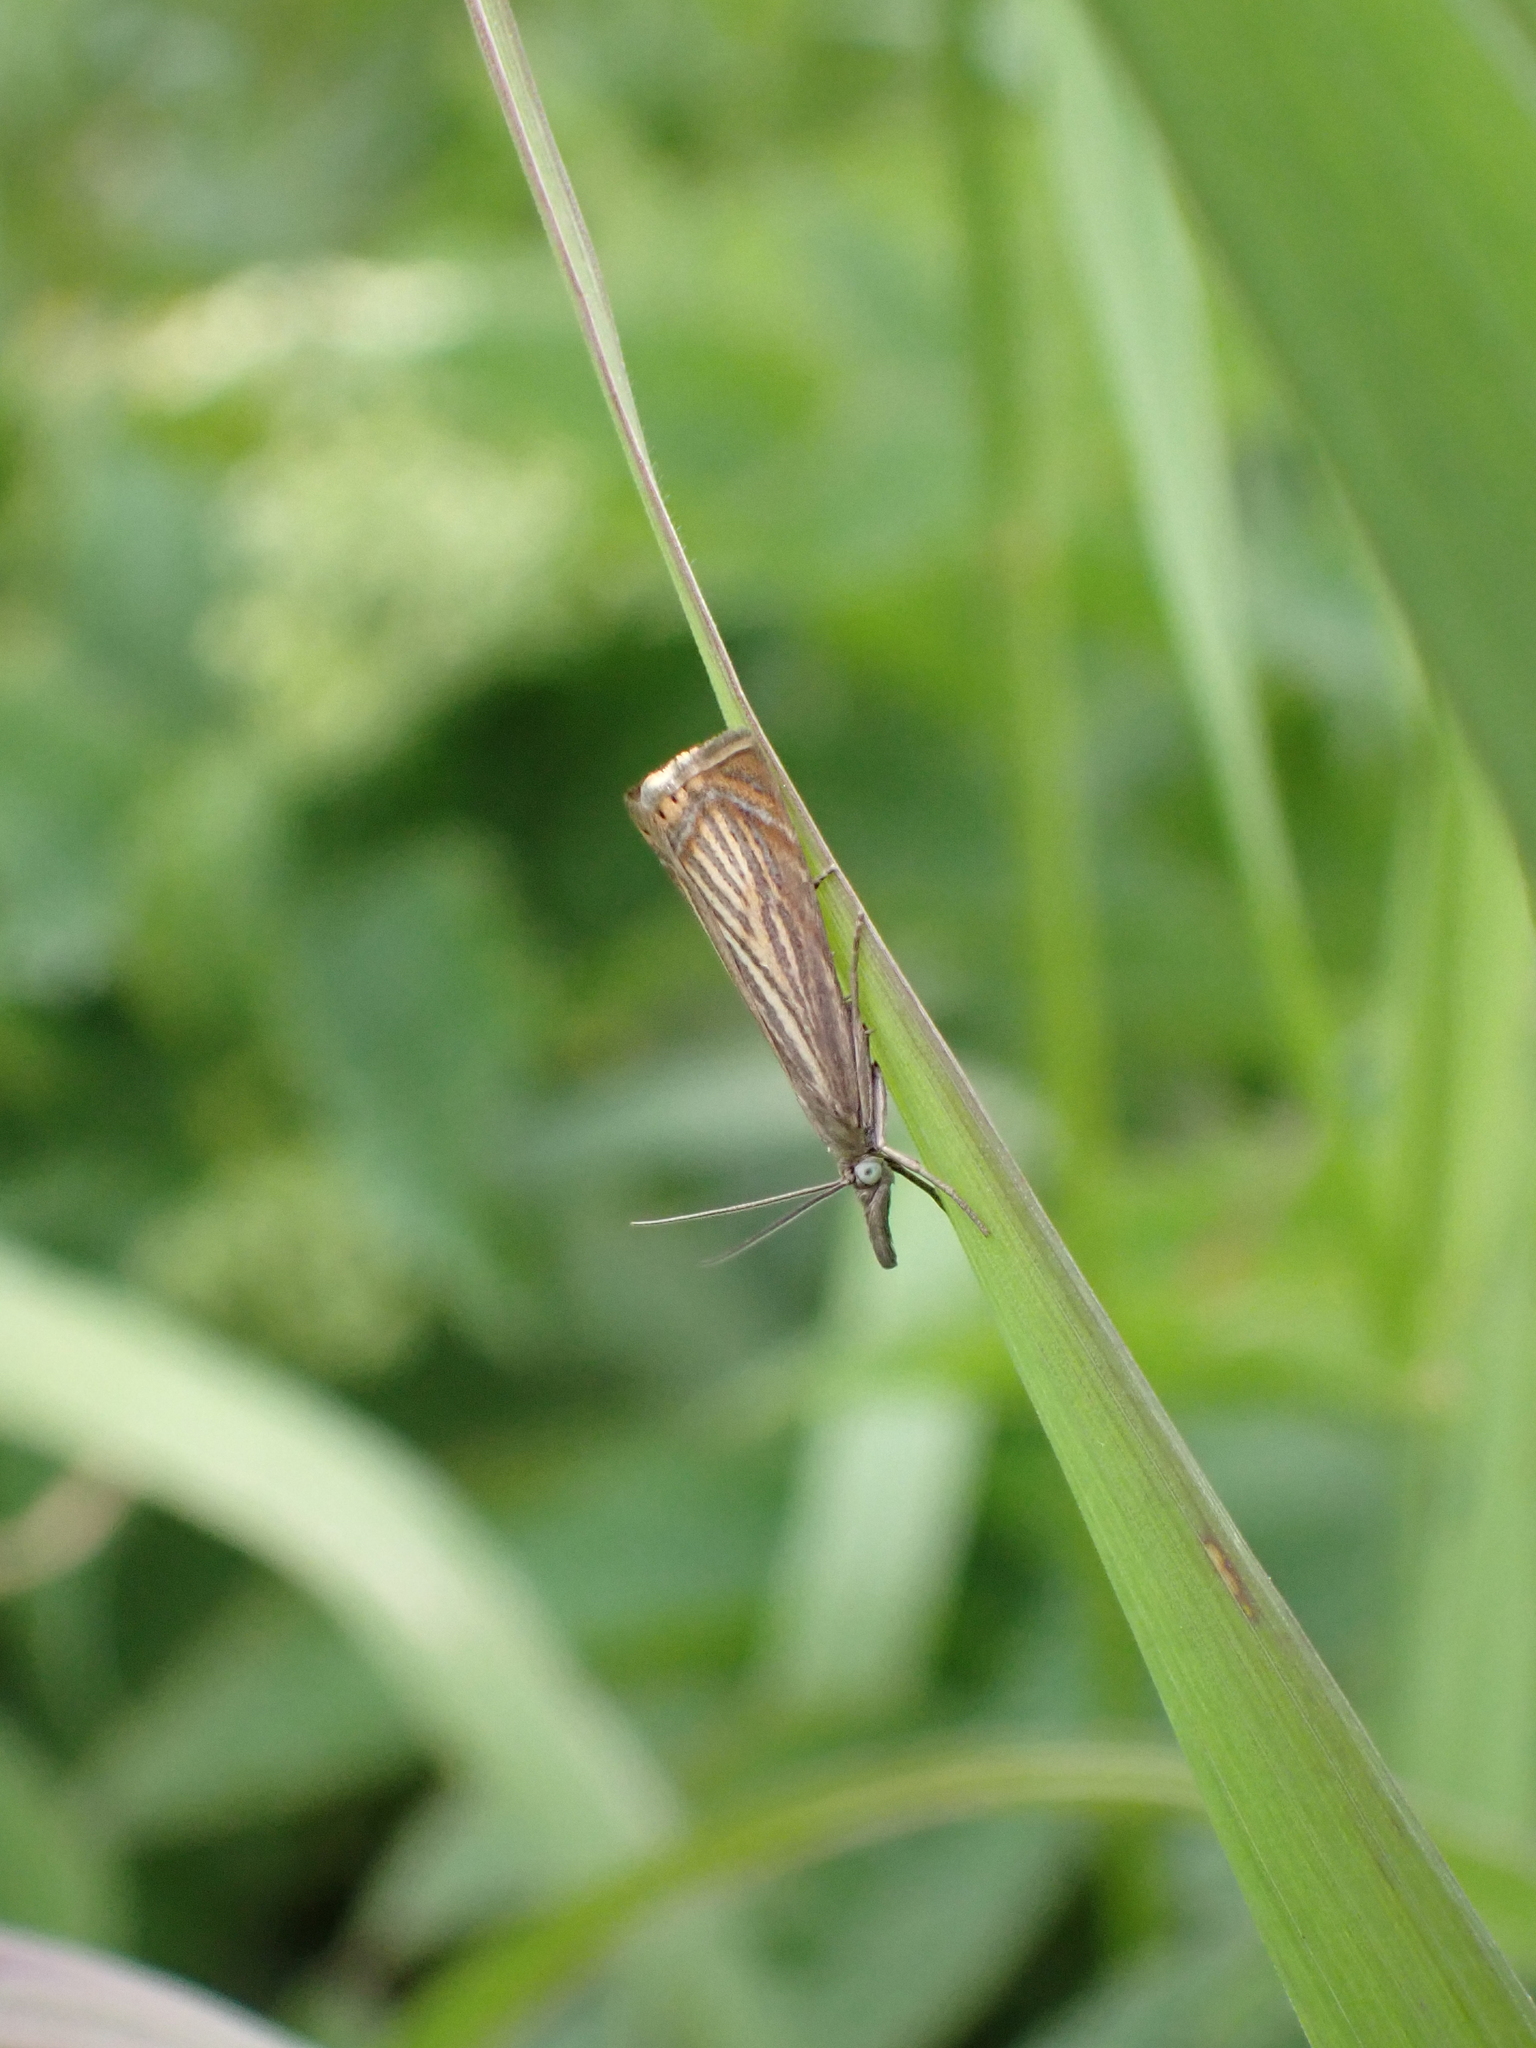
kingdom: Animalia
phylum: Arthropoda
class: Insecta
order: Lepidoptera
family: Crambidae
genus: Chrysoteuchia
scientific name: Chrysoteuchia culmella
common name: Garden grass-veneer
